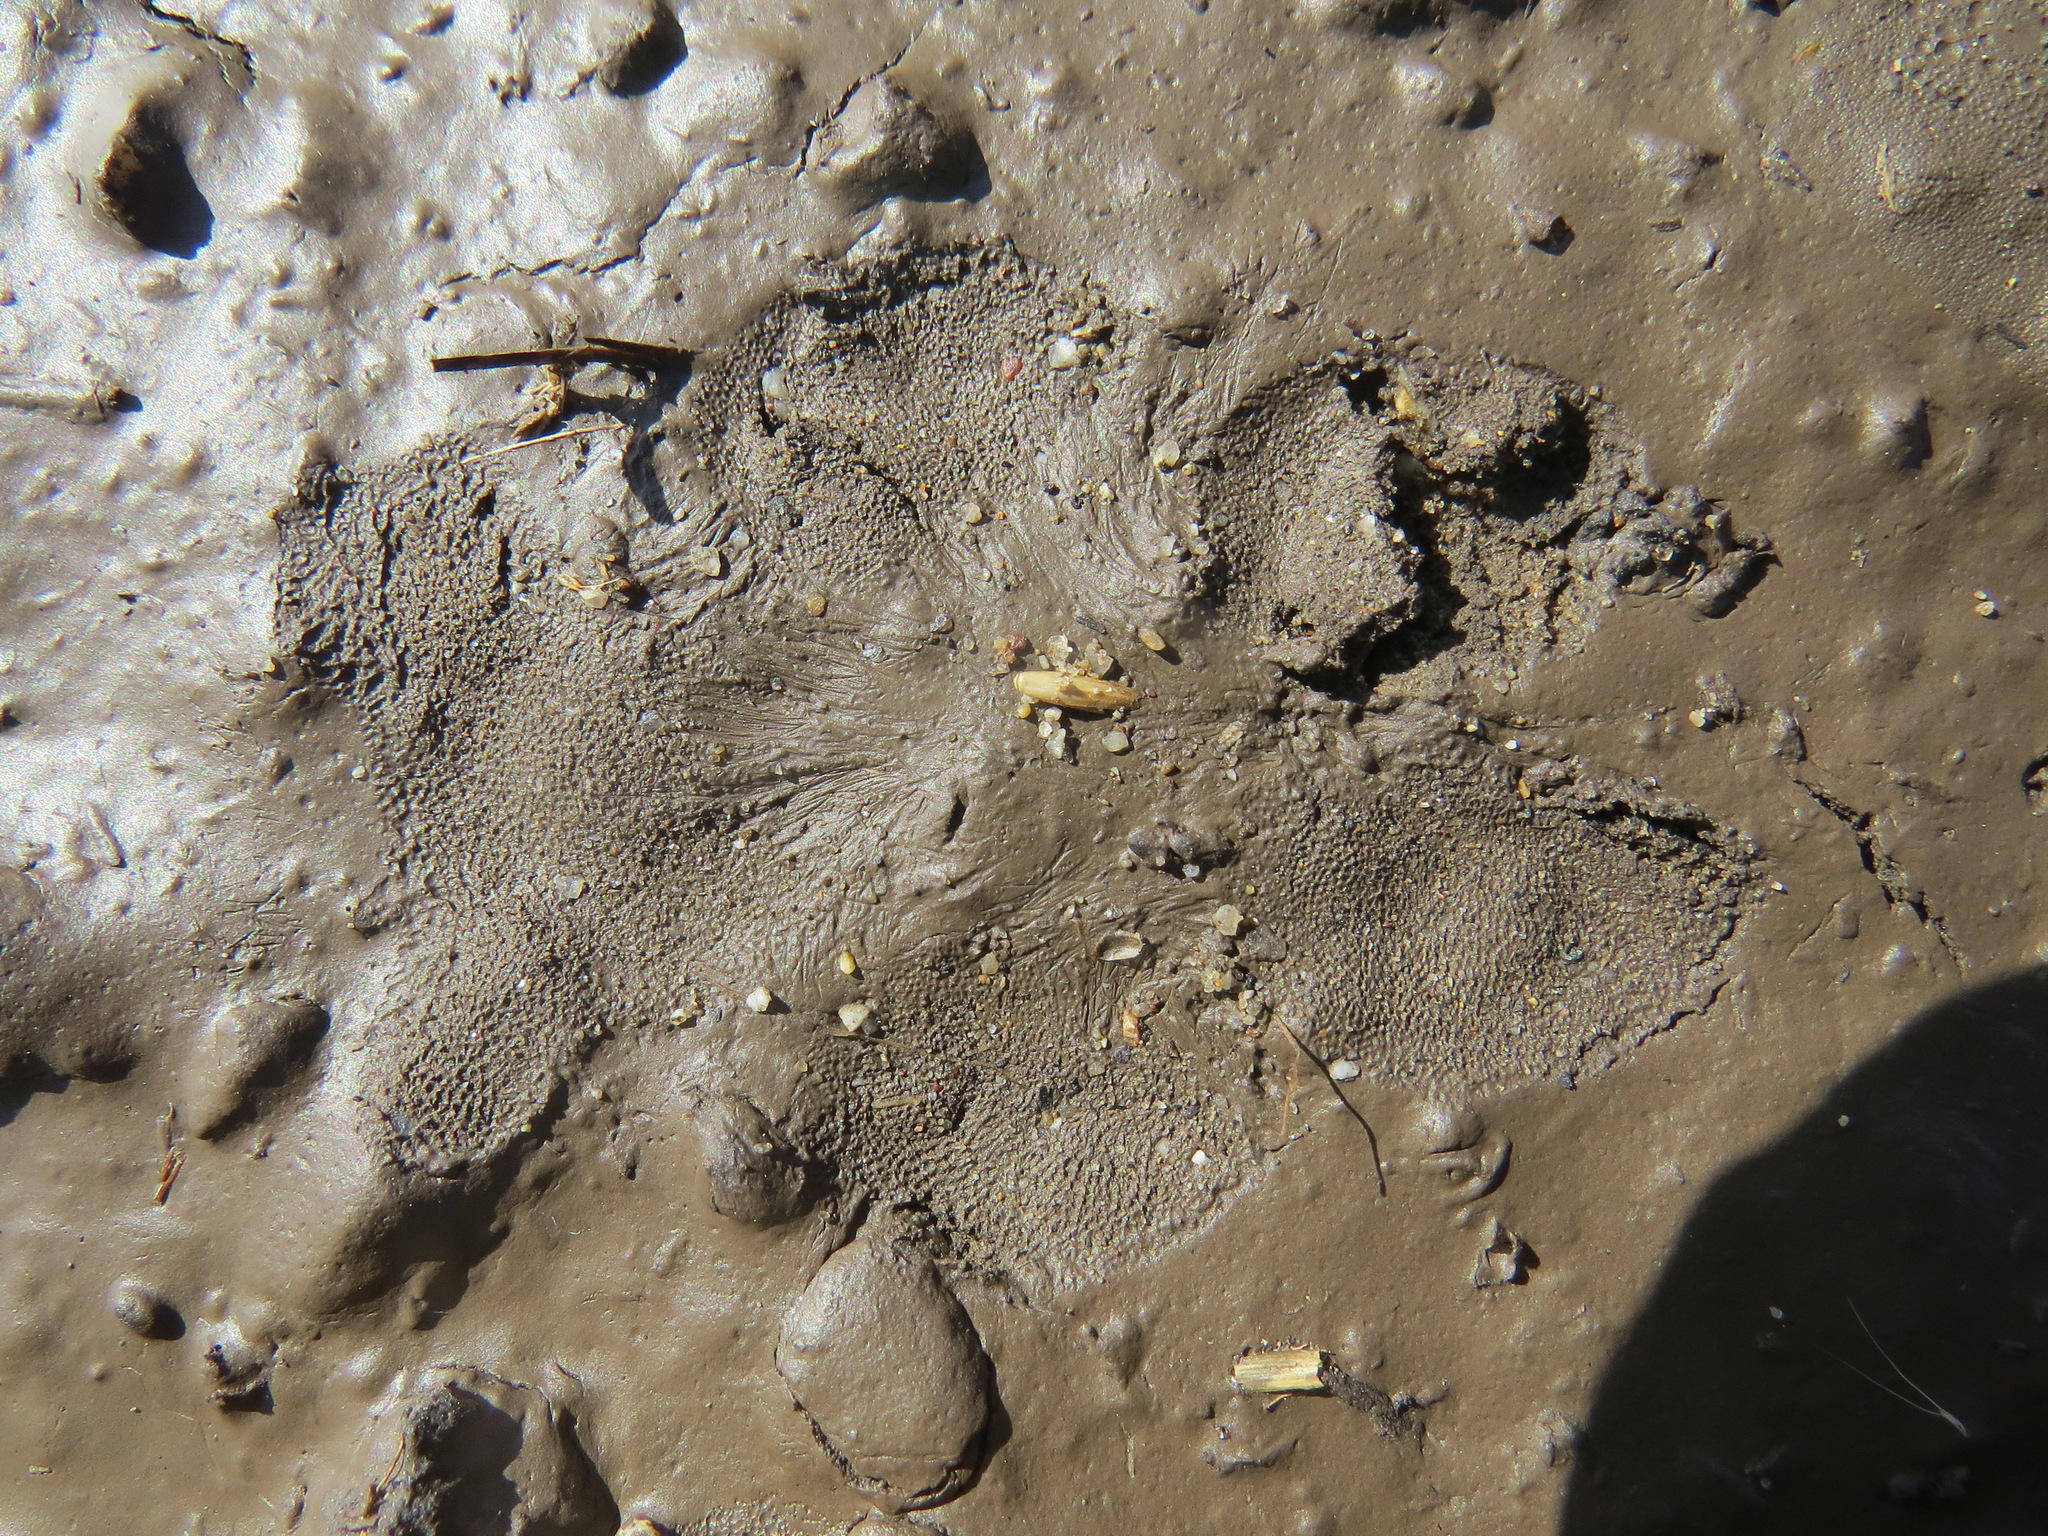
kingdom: Animalia
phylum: Chordata
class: Mammalia
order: Carnivora
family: Canidae
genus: Canis
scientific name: Canis latrans
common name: Coyote
